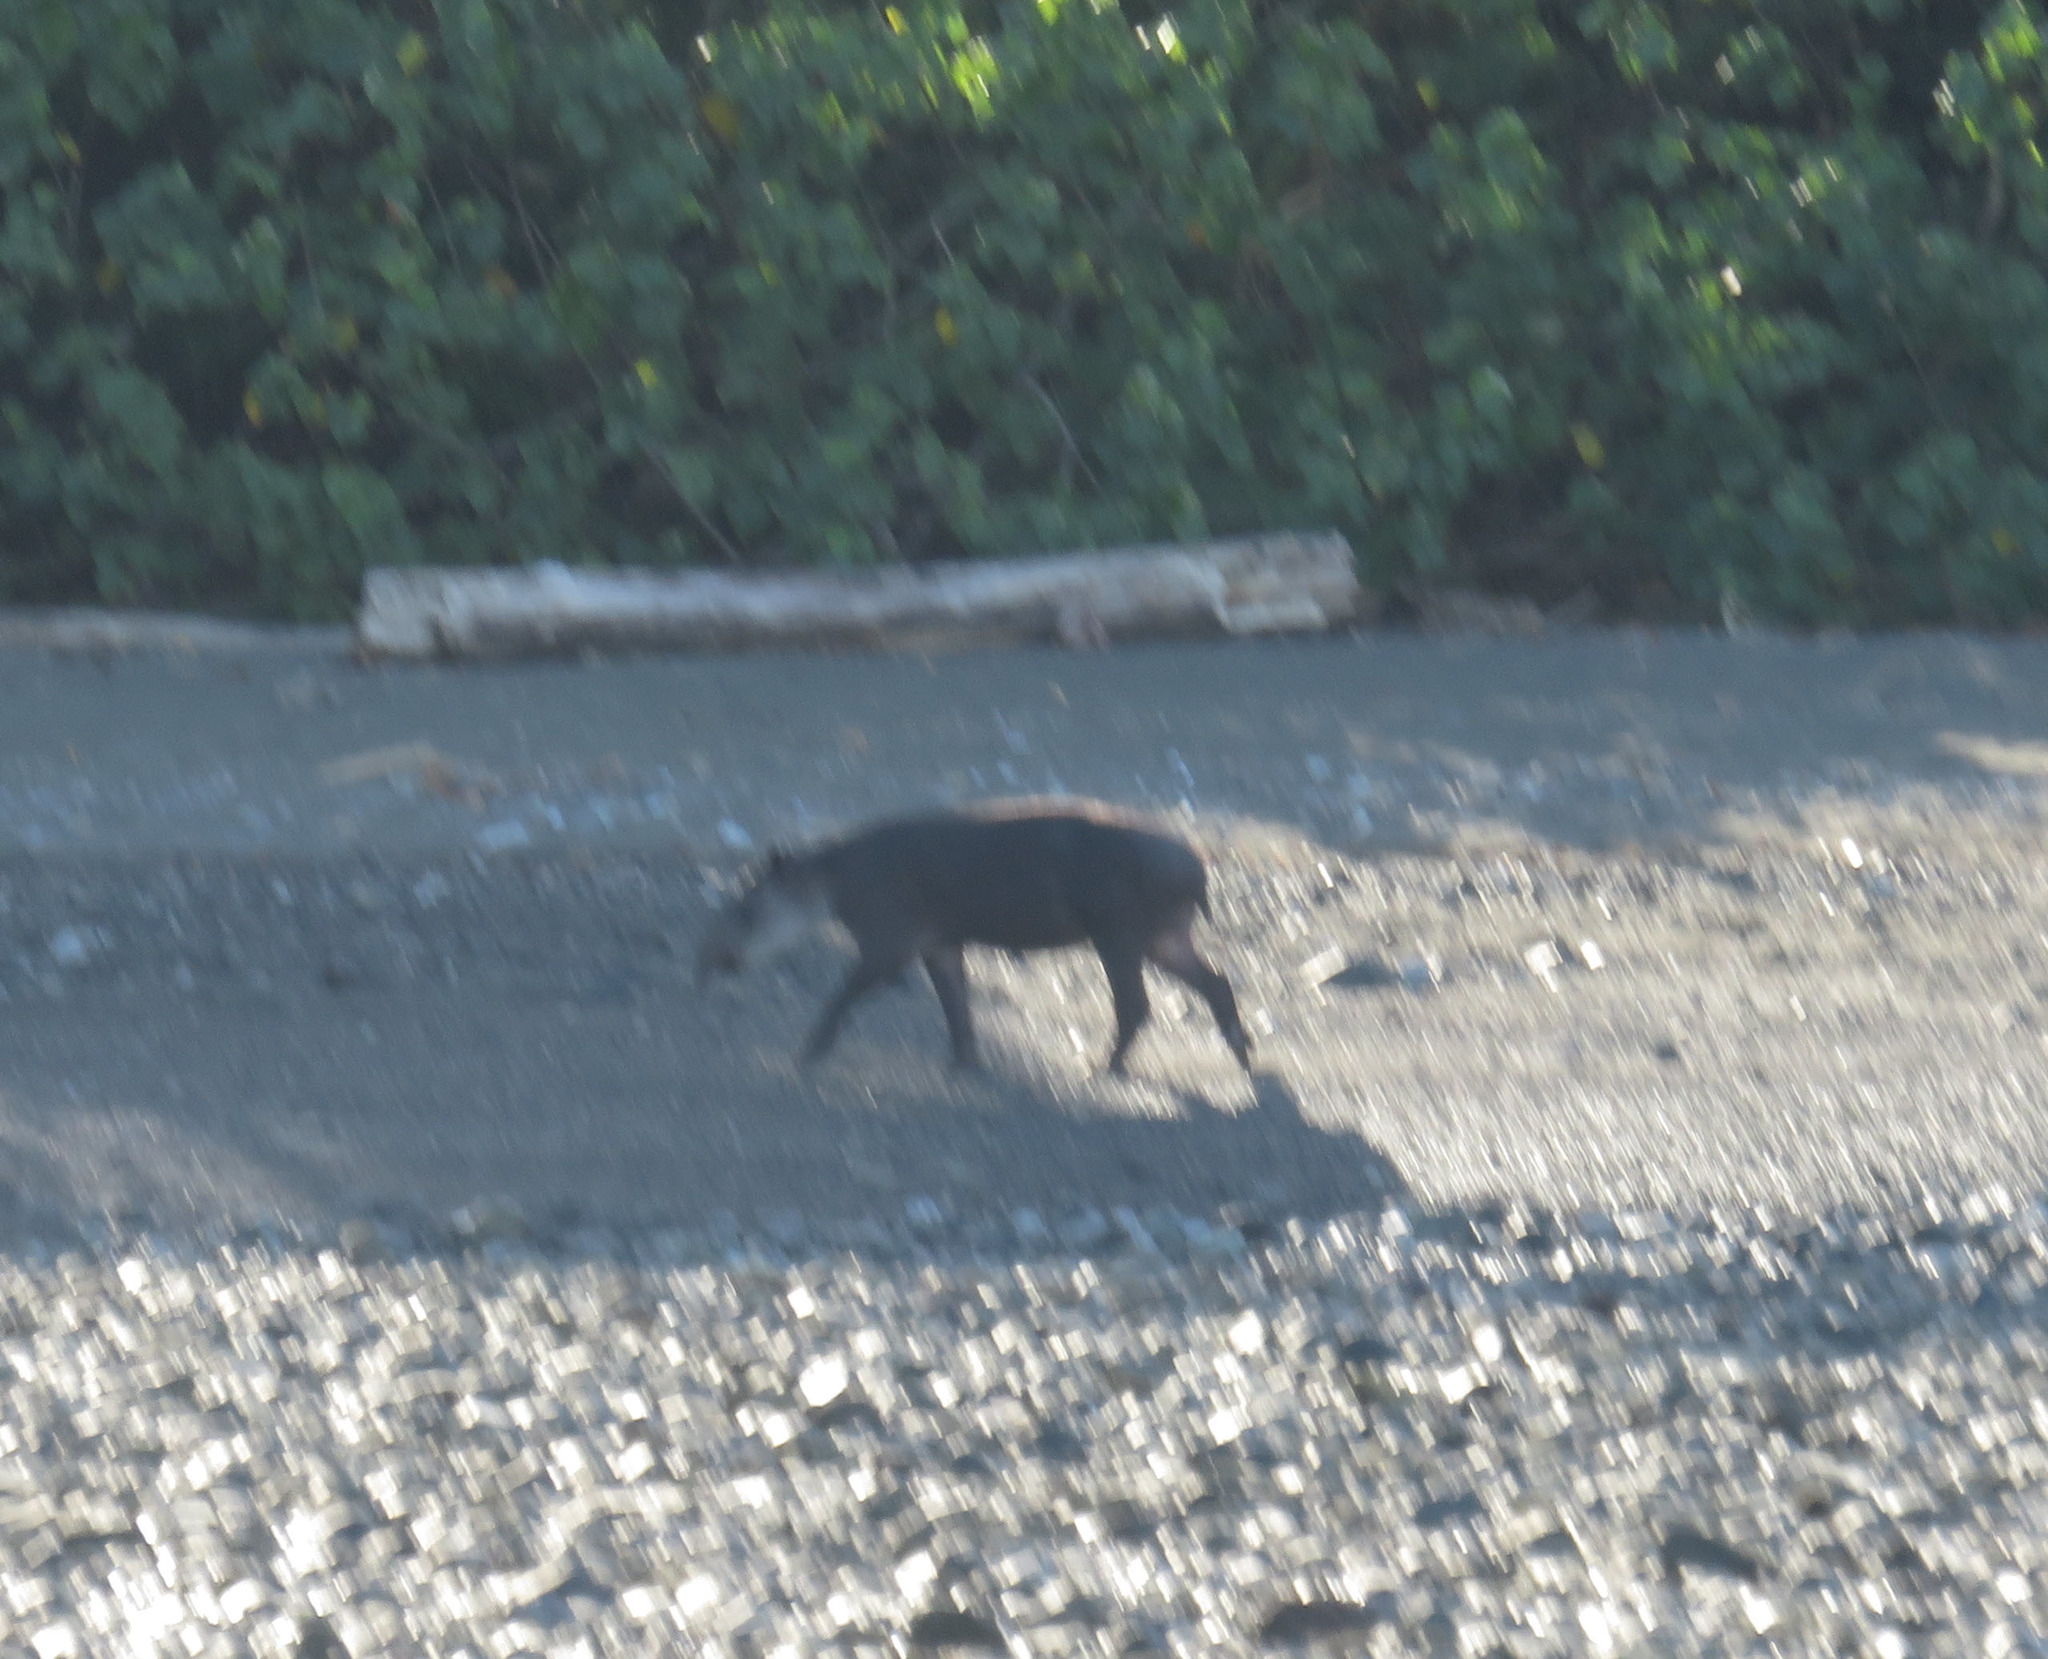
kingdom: Animalia
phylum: Chordata
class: Mammalia
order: Perissodactyla
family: Tapiridae
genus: Tapirella
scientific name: Tapirella bairdii
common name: Baird's tapir
